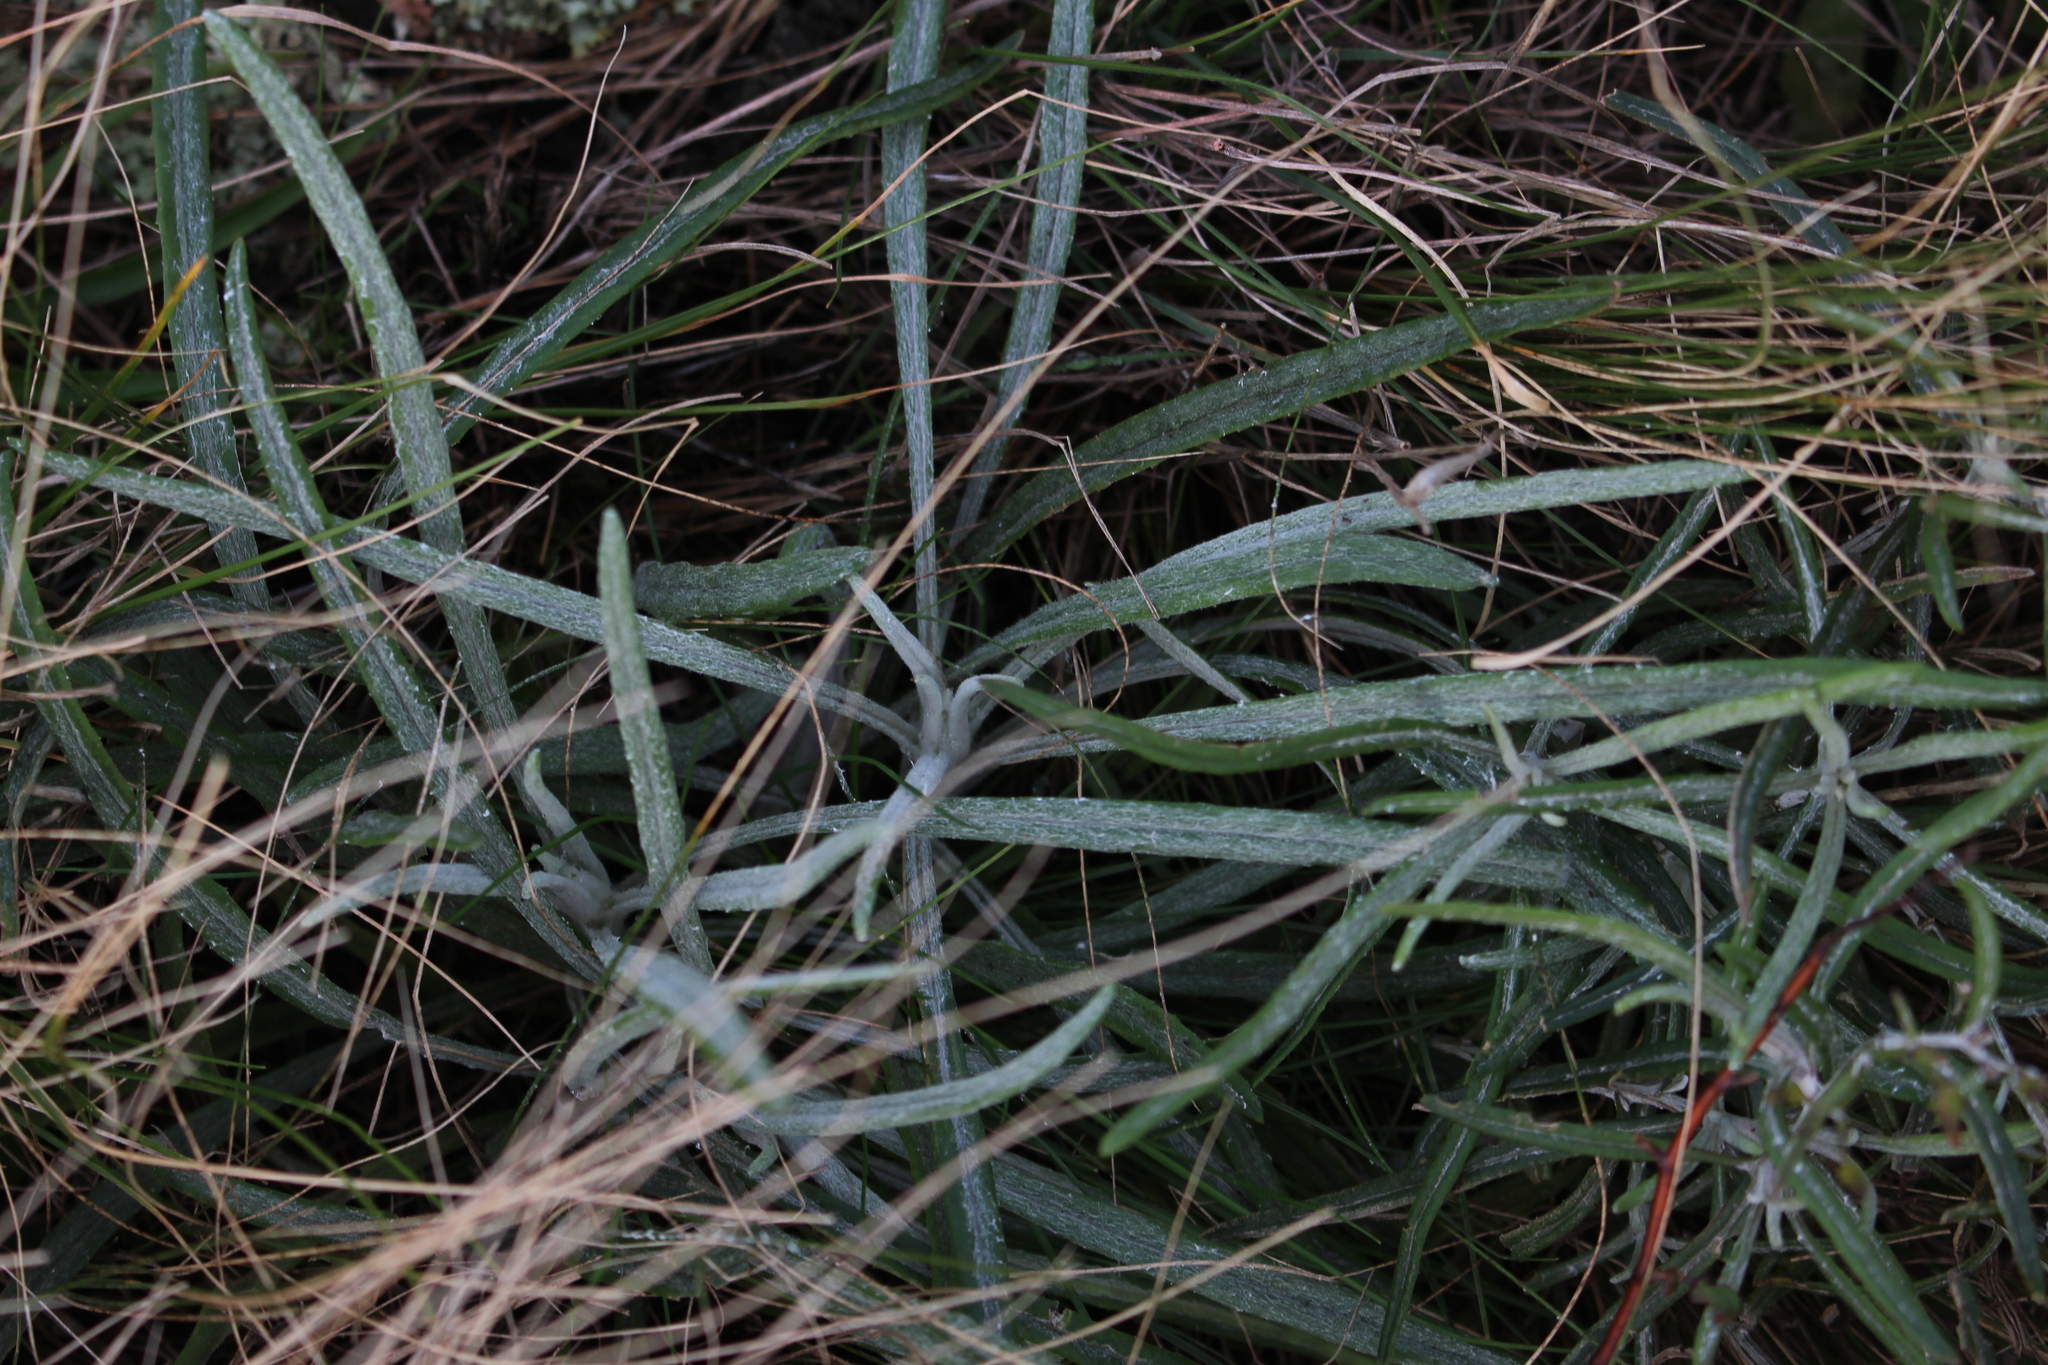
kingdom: Plantae
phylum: Tracheophyta
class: Magnoliopsida
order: Asterales
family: Asteraceae
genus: Senecio
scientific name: Senecio quadridentatus
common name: Cotton fireweed
